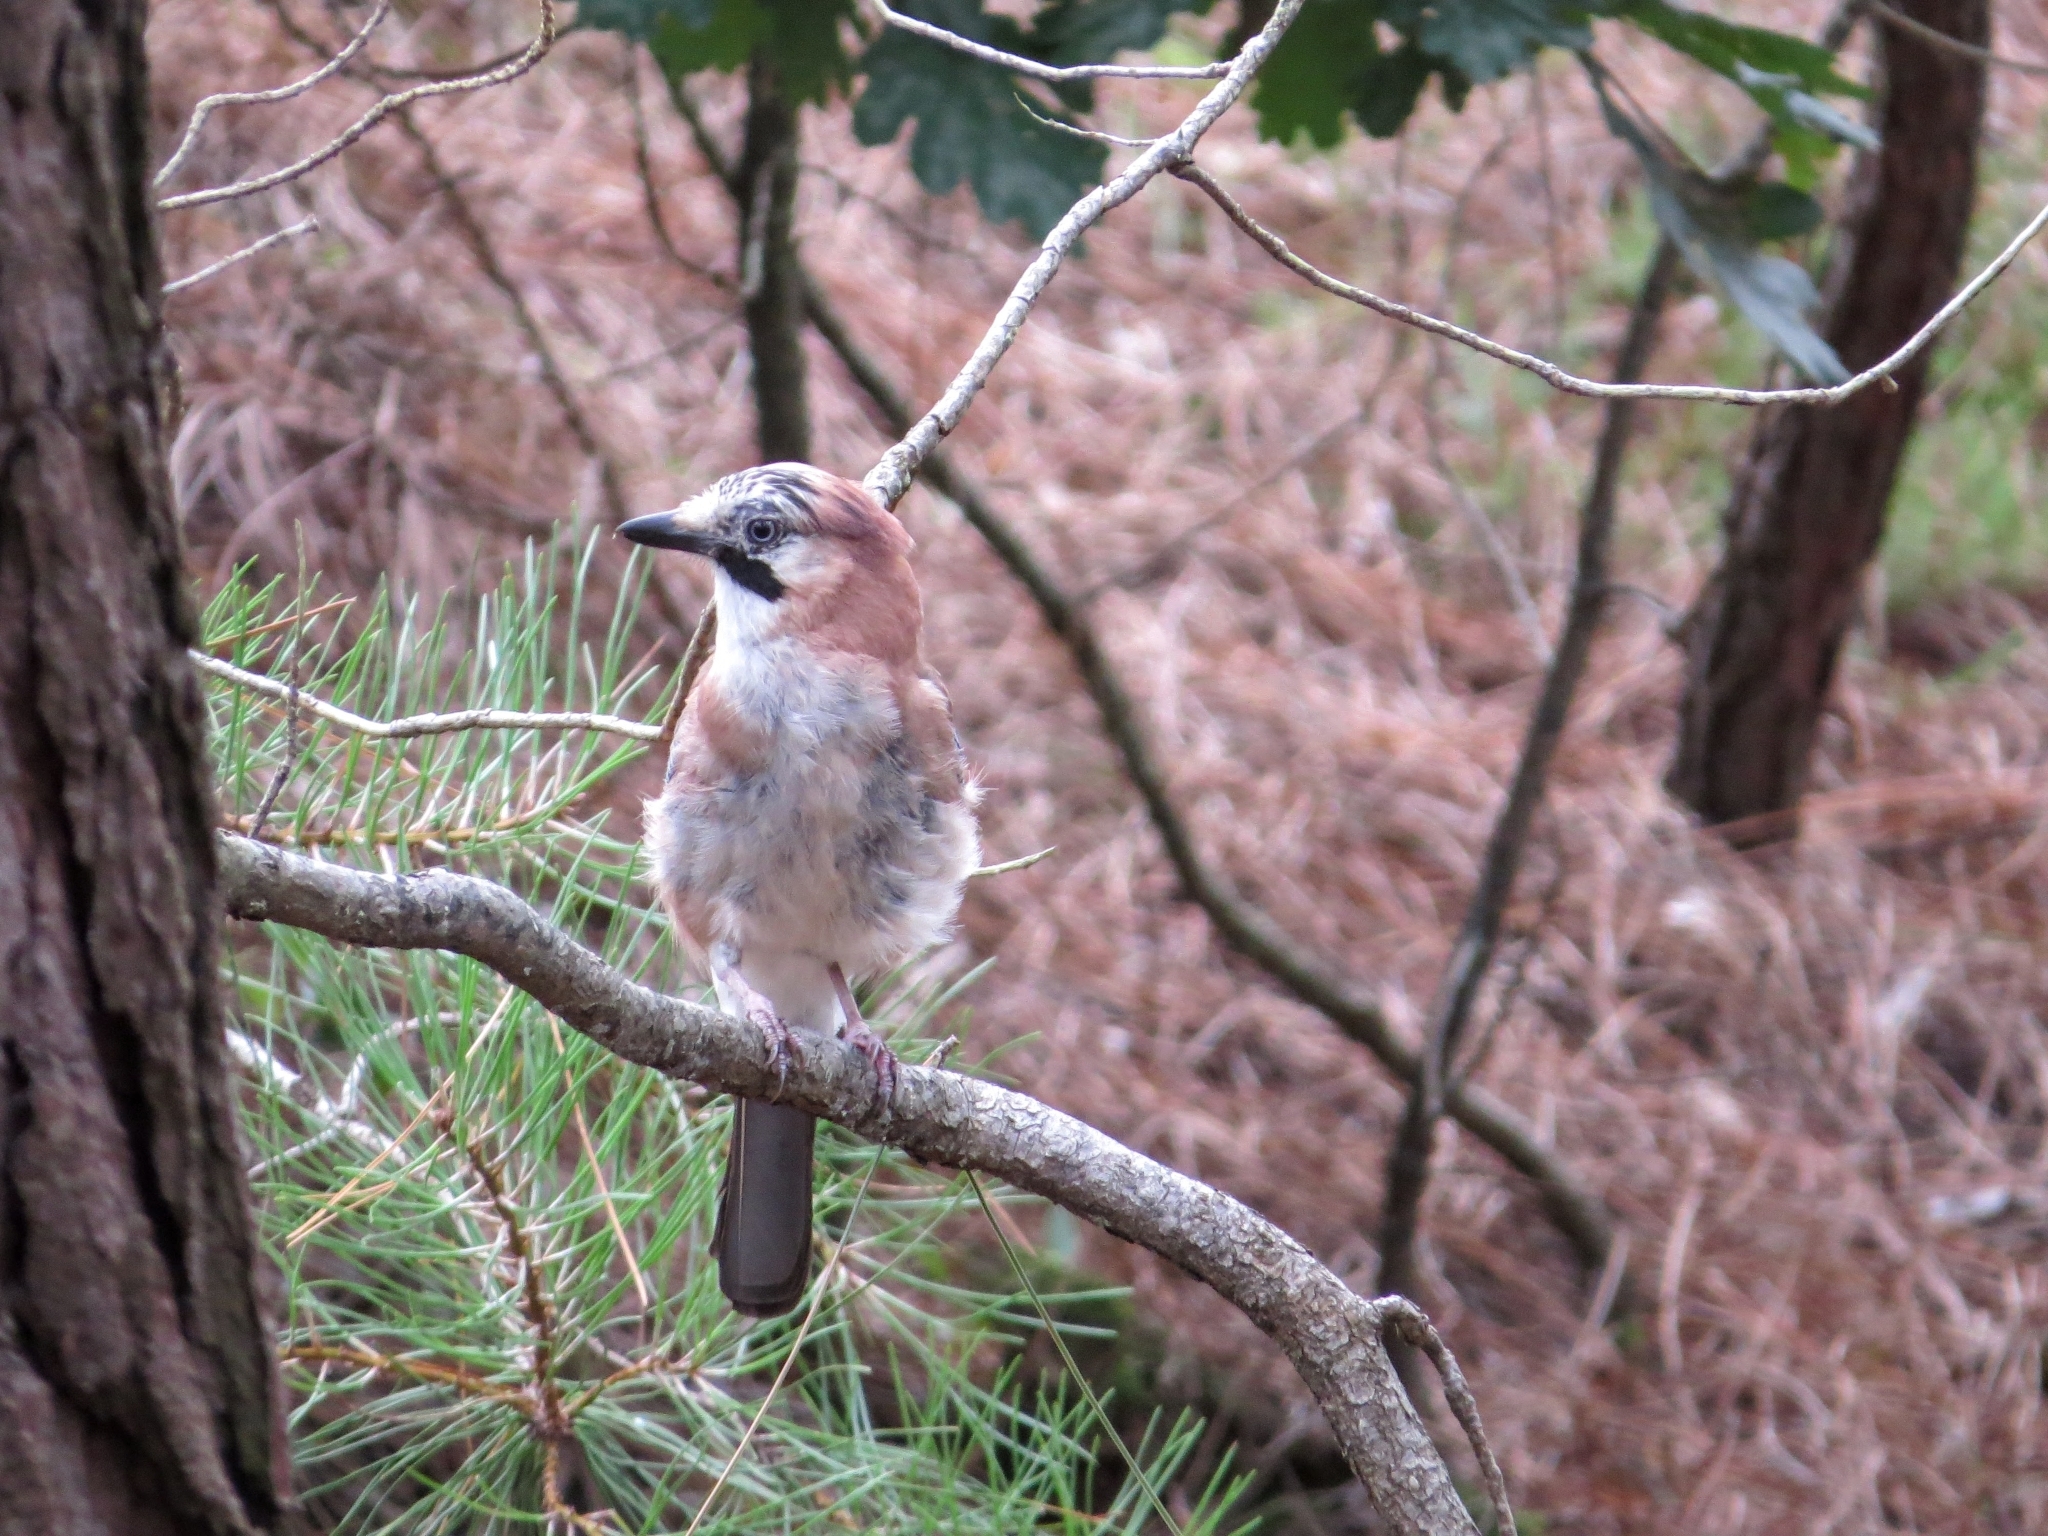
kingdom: Animalia
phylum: Chordata
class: Aves
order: Passeriformes
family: Corvidae
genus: Garrulus
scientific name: Garrulus glandarius
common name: Eurasian jay
